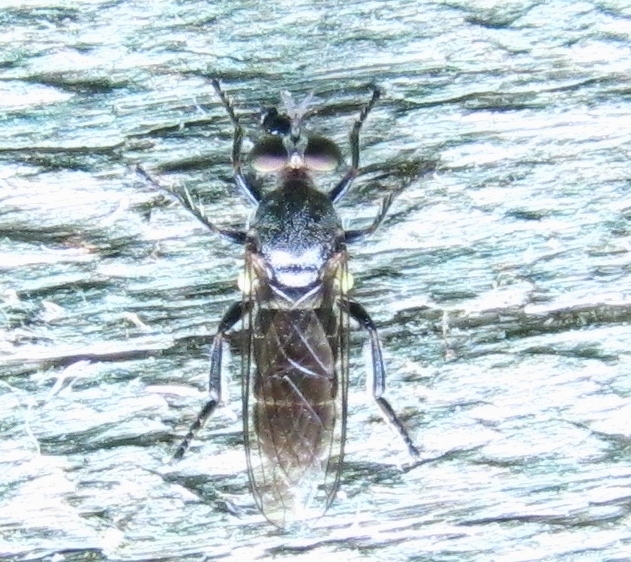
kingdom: Animalia
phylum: Arthropoda
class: Insecta
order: Diptera
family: Asilidae
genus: Atomosia
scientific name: Atomosia puella
